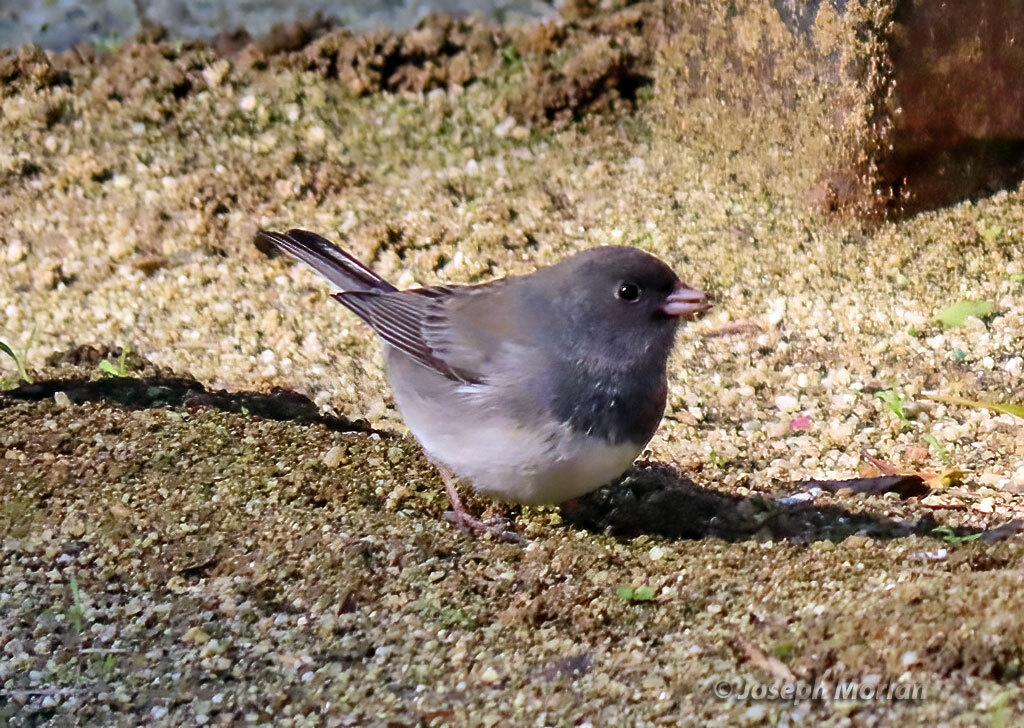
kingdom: Animalia
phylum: Chordata
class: Aves
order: Passeriformes
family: Passerellidae
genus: Junco
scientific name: Junco hyemalis
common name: Dark-eyed junco
